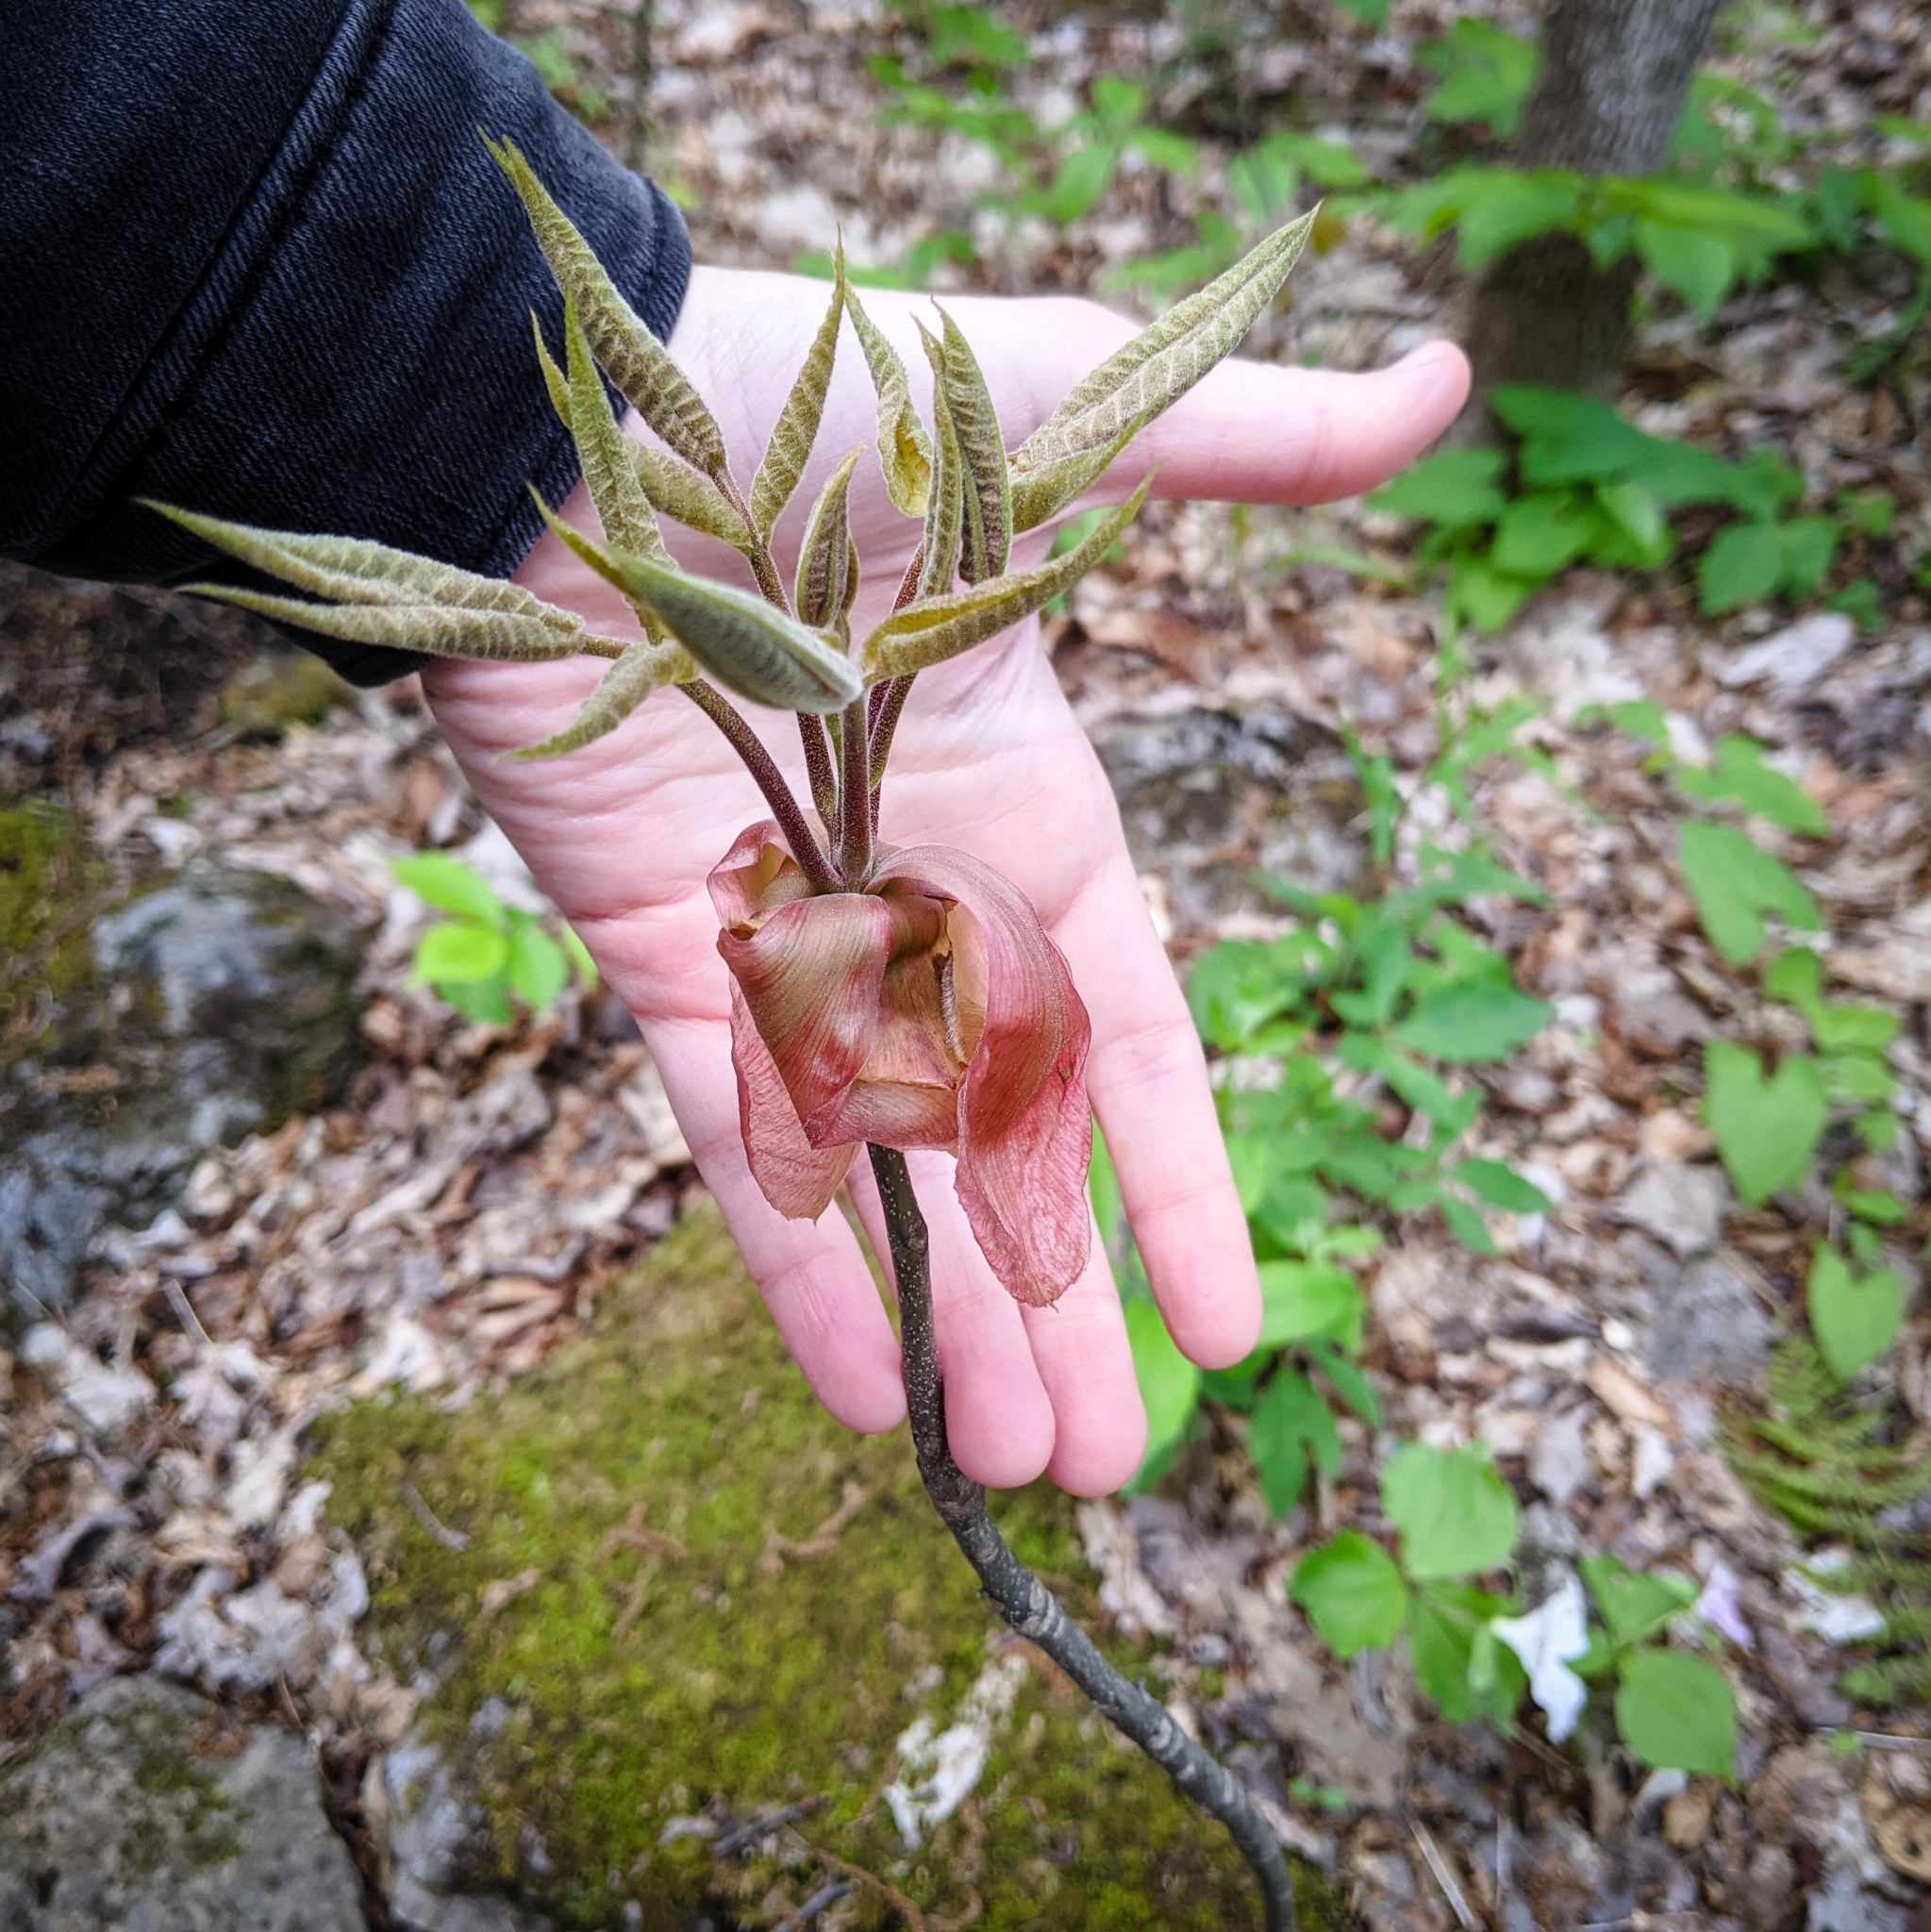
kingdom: Plantae
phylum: Tracheophyta
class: Magnoliopsida
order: Fagales
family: Juglandaceae
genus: Carya
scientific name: Carya ovata
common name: Shagbark hickory
